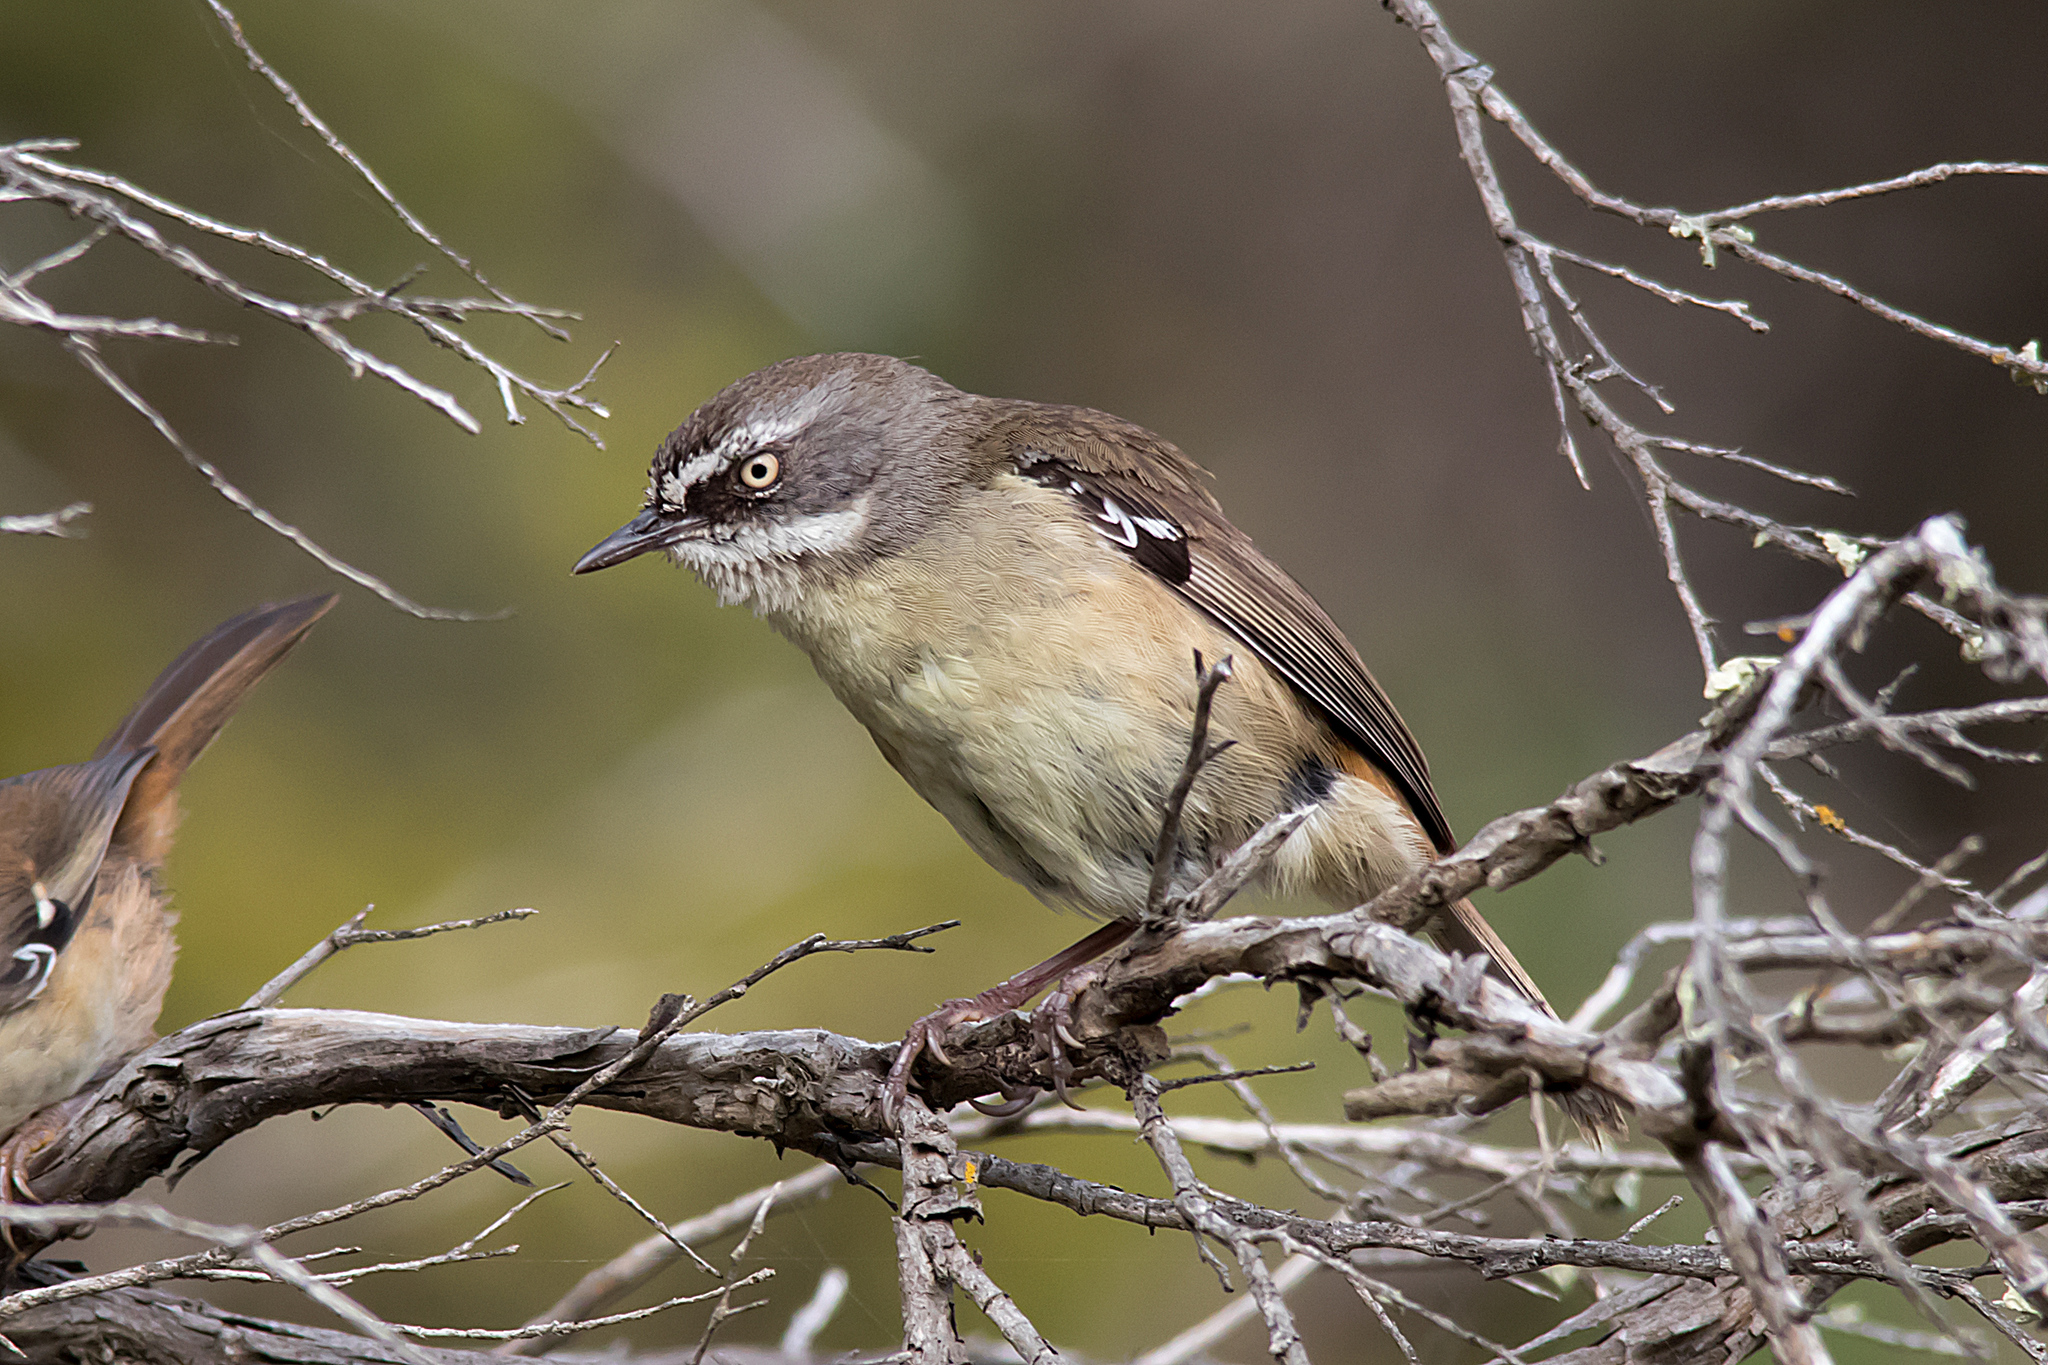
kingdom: Animalia
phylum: Chordata
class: Aves
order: Passeriformes
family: Acanthizidae
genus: Sericornis
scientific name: Sericornis frontalis
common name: White-browed scrubwren
